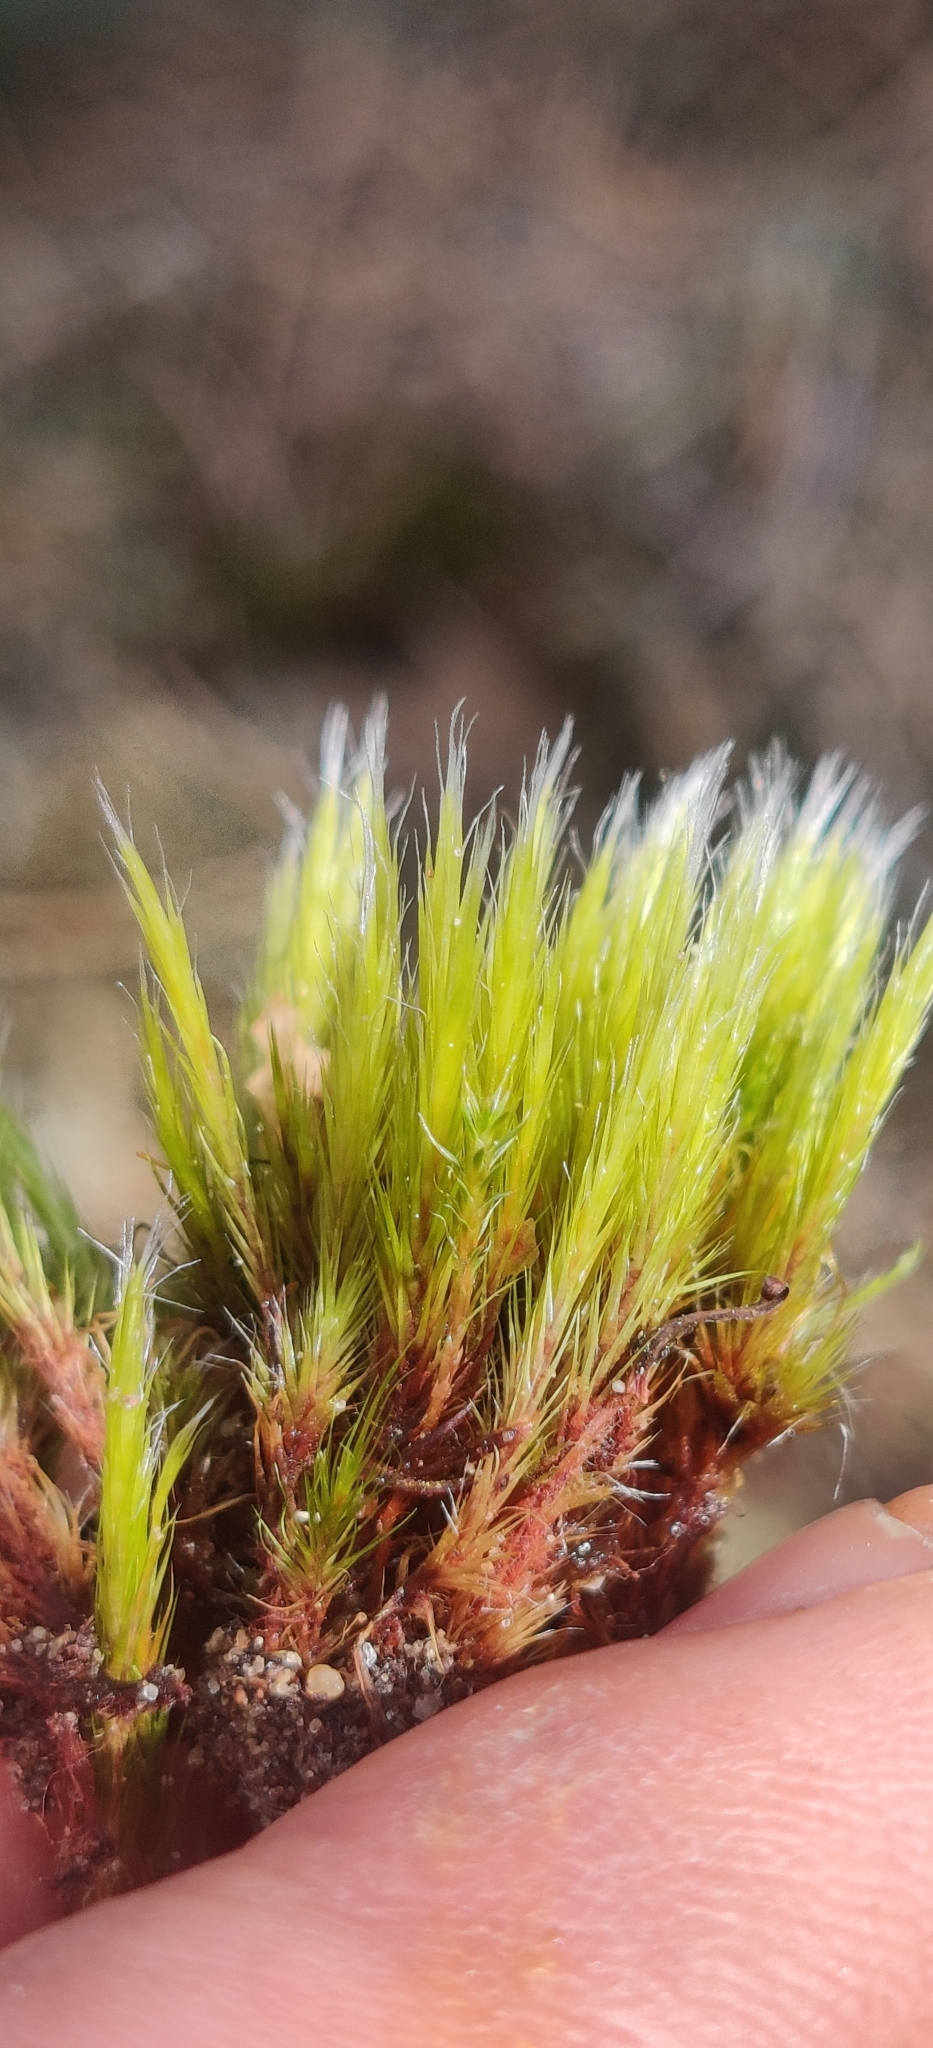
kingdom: Plantae
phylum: Bryophyta
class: Bryopsida
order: Dicranales
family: Leucobryaceae
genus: Campylopus
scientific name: Campylopus introflexus
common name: Heath star moss
